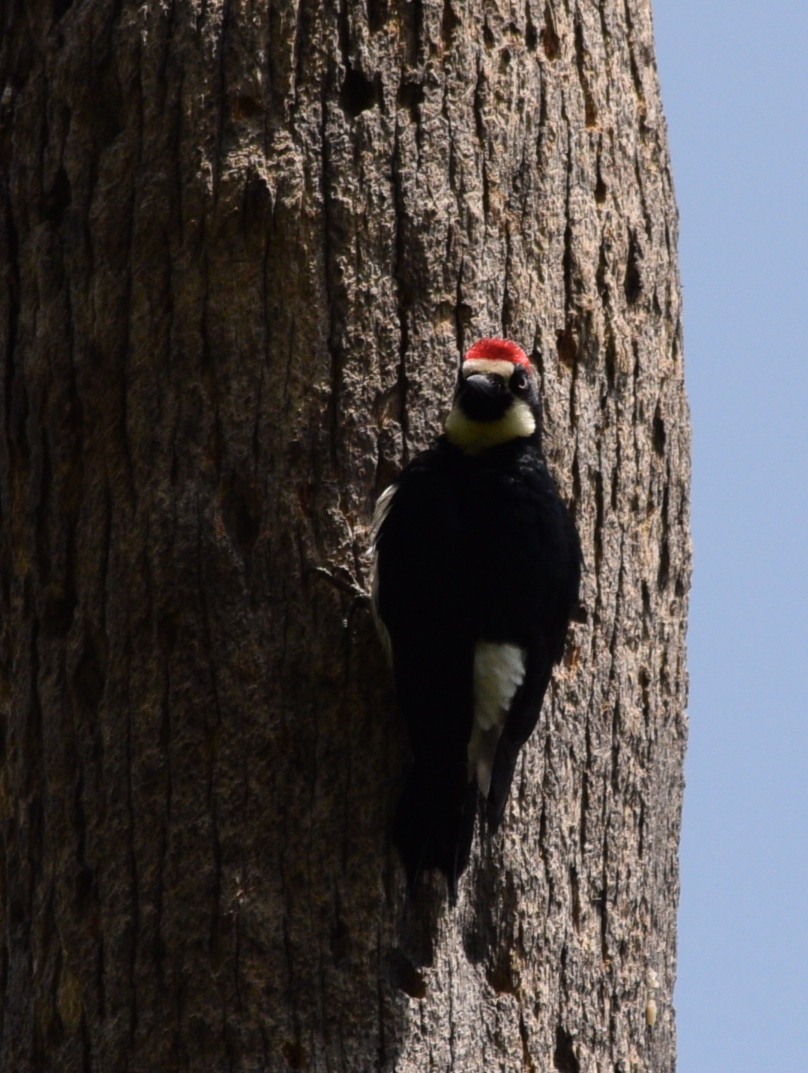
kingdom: Animalia
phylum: Chordata
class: Aves
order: Piciformes
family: Picidae
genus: Melanerpes
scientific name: Melanerpes formicivorus
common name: Acorn woodpecker
